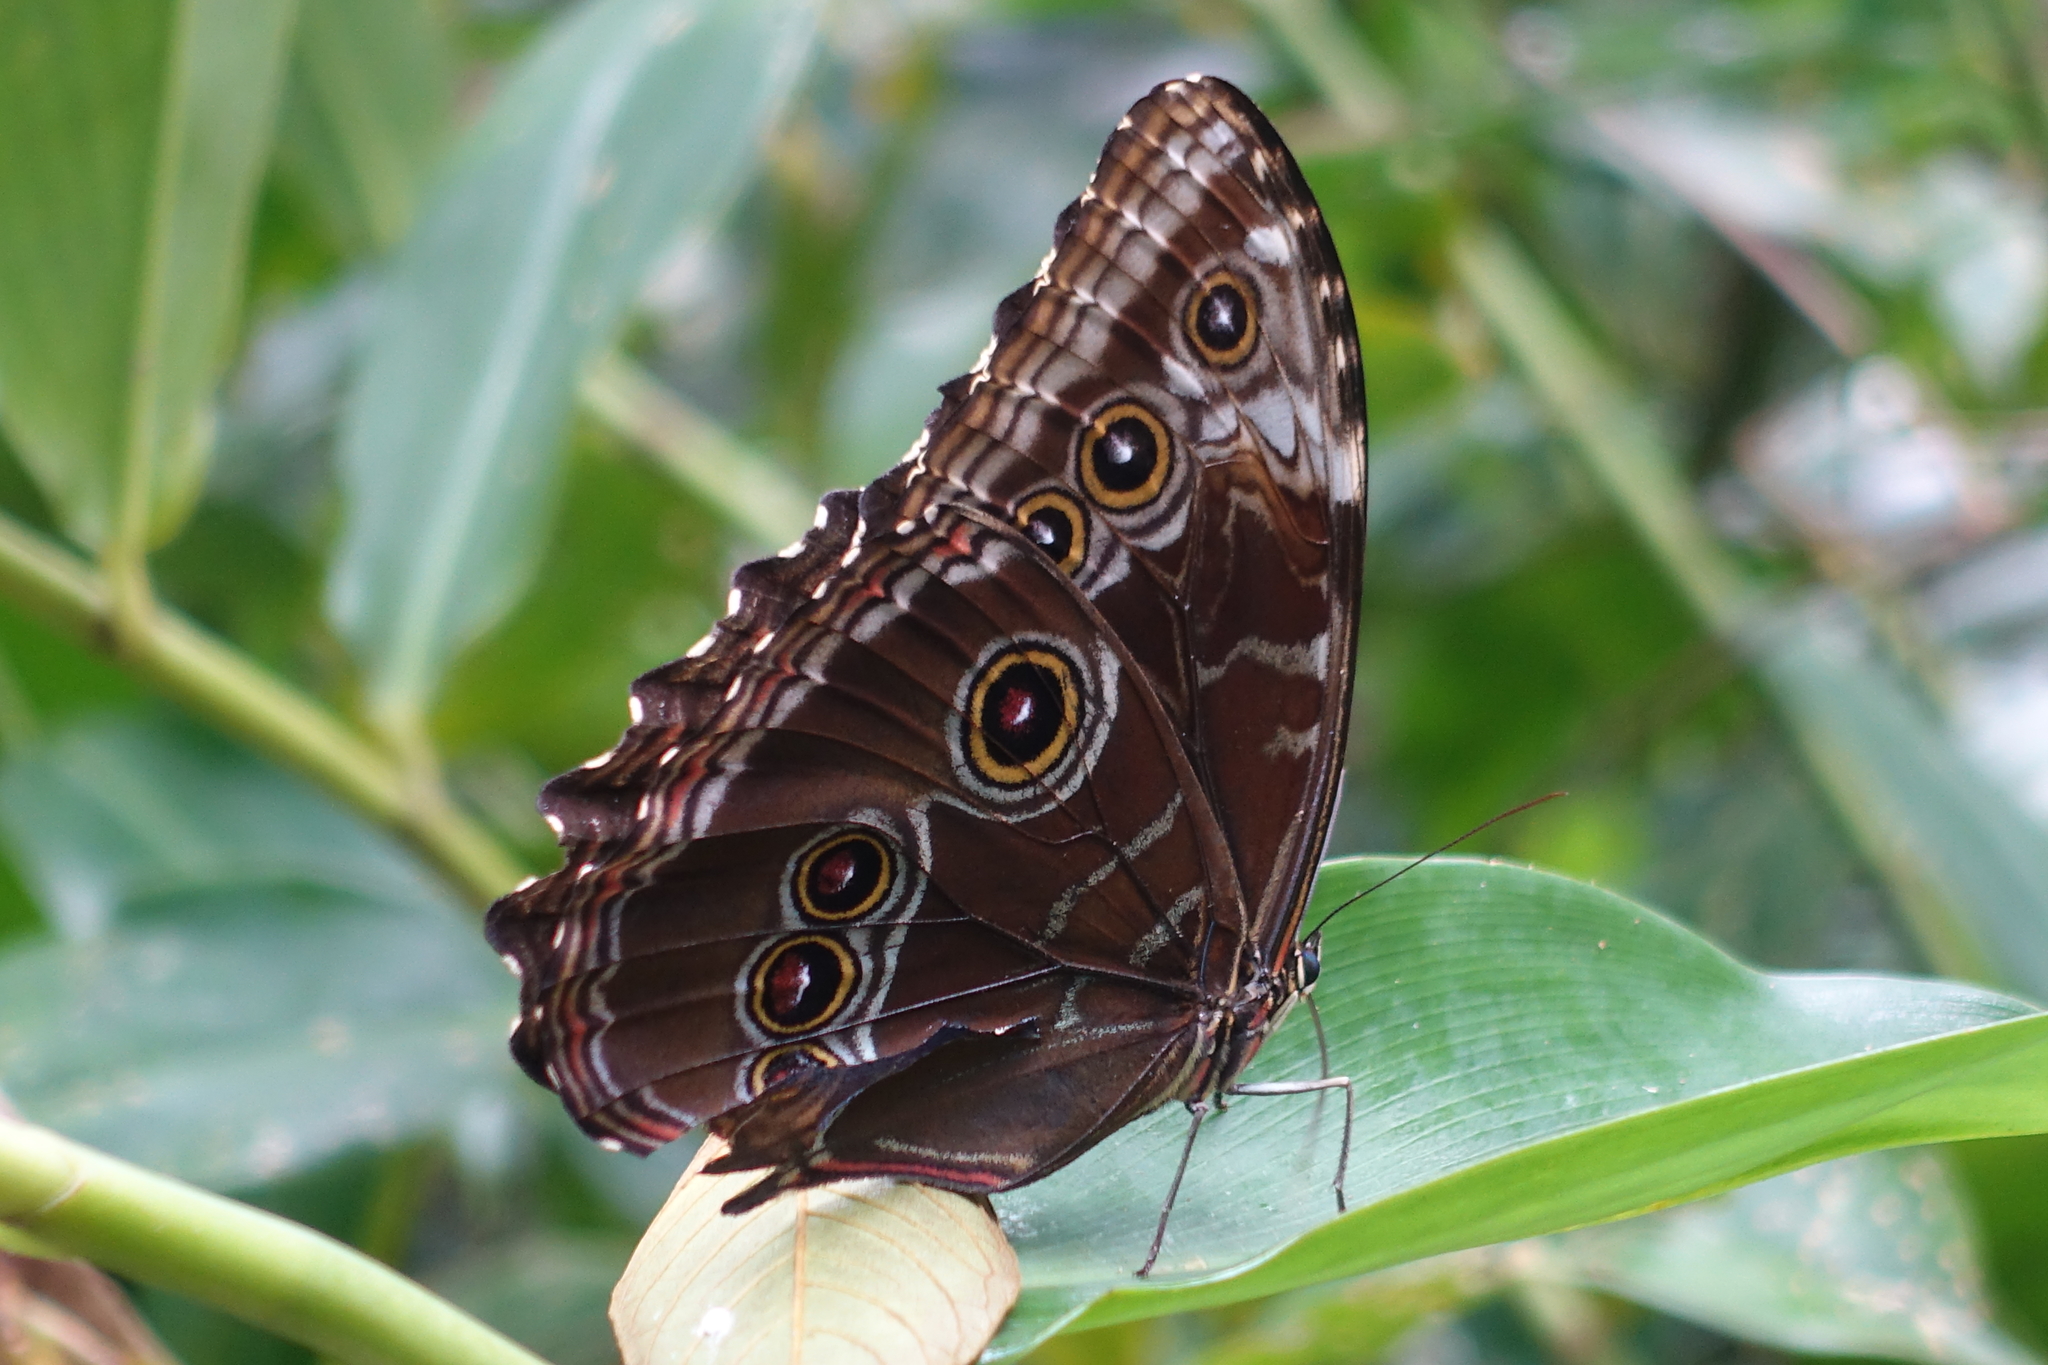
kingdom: Animalia
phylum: Arthropoda
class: Insecta
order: Lepidoptera
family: Nymphalidae
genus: Morpho
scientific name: Morpho helenor
